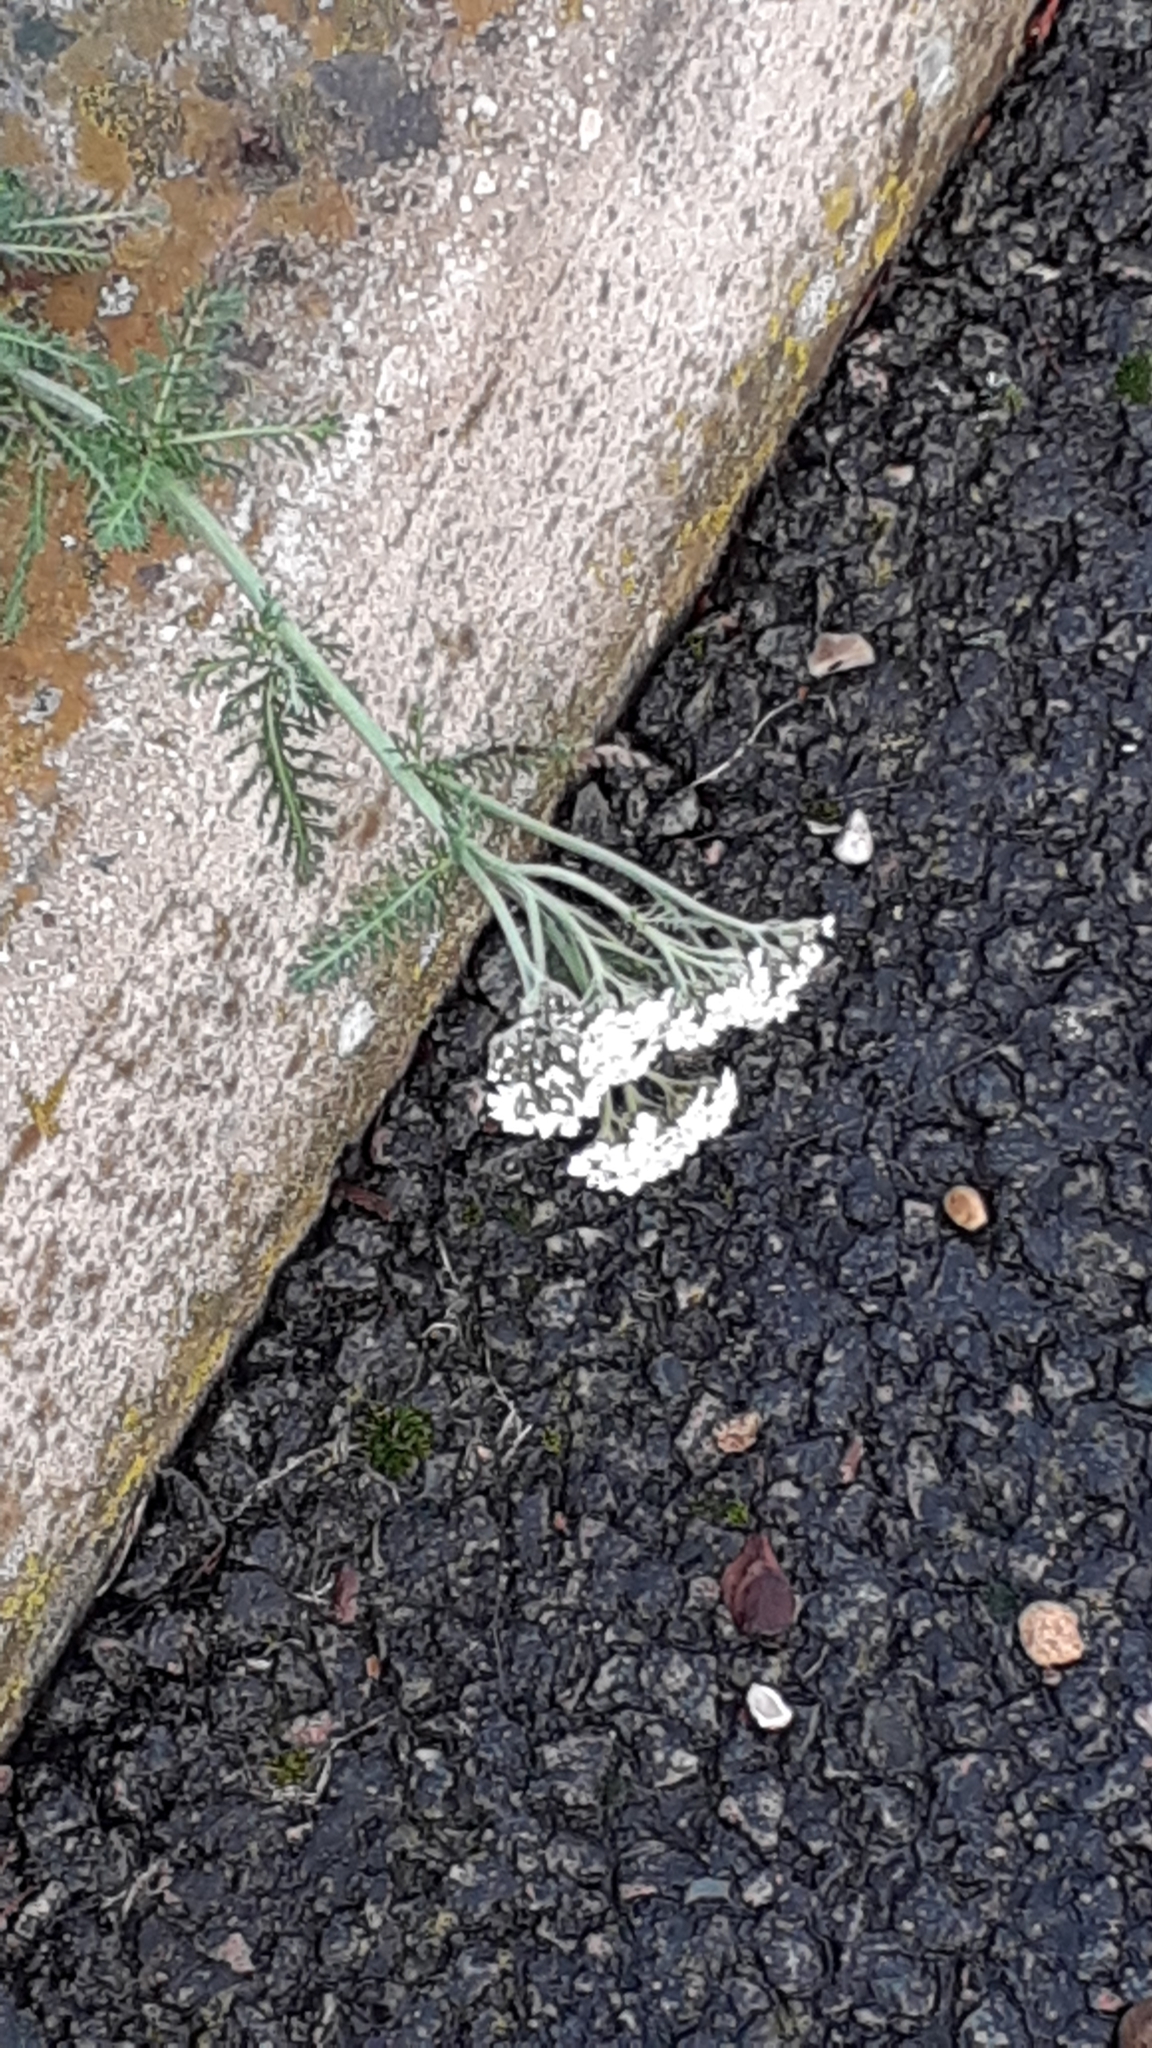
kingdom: Plantae
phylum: Tracheophyta
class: Magnoliopsida
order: Asterales
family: Asteraceae
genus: Achillea
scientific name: Achillea millefolium
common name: Yarrow
